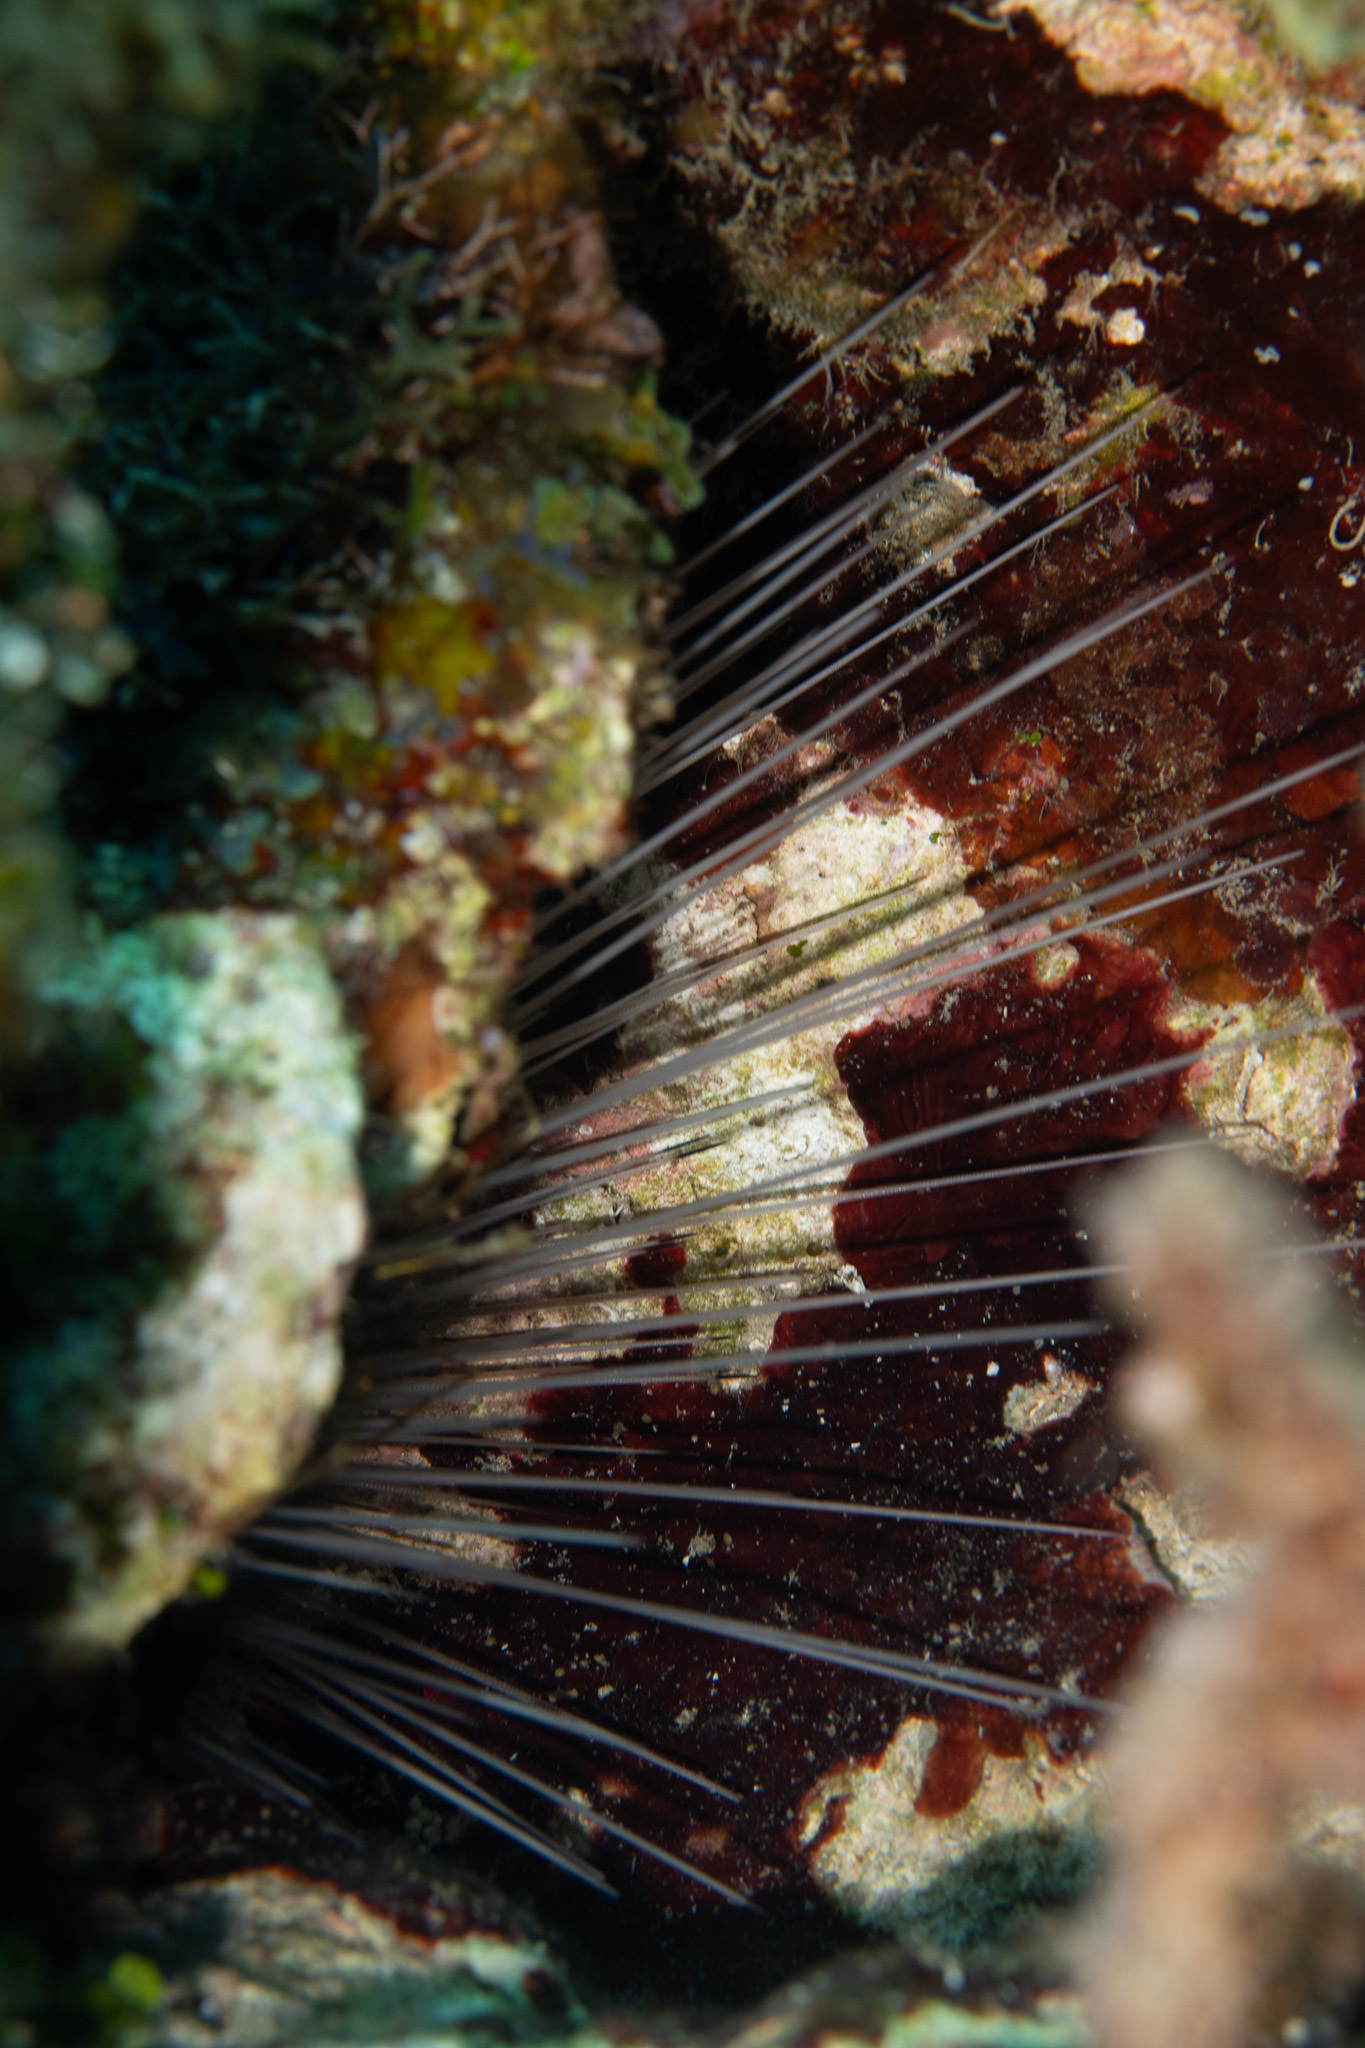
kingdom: Animalia
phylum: Echinodermata
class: Echinoidea
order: Diadematoida
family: Diadematidae
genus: Diadema
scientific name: Diadema antillarum
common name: Spiny urchin
